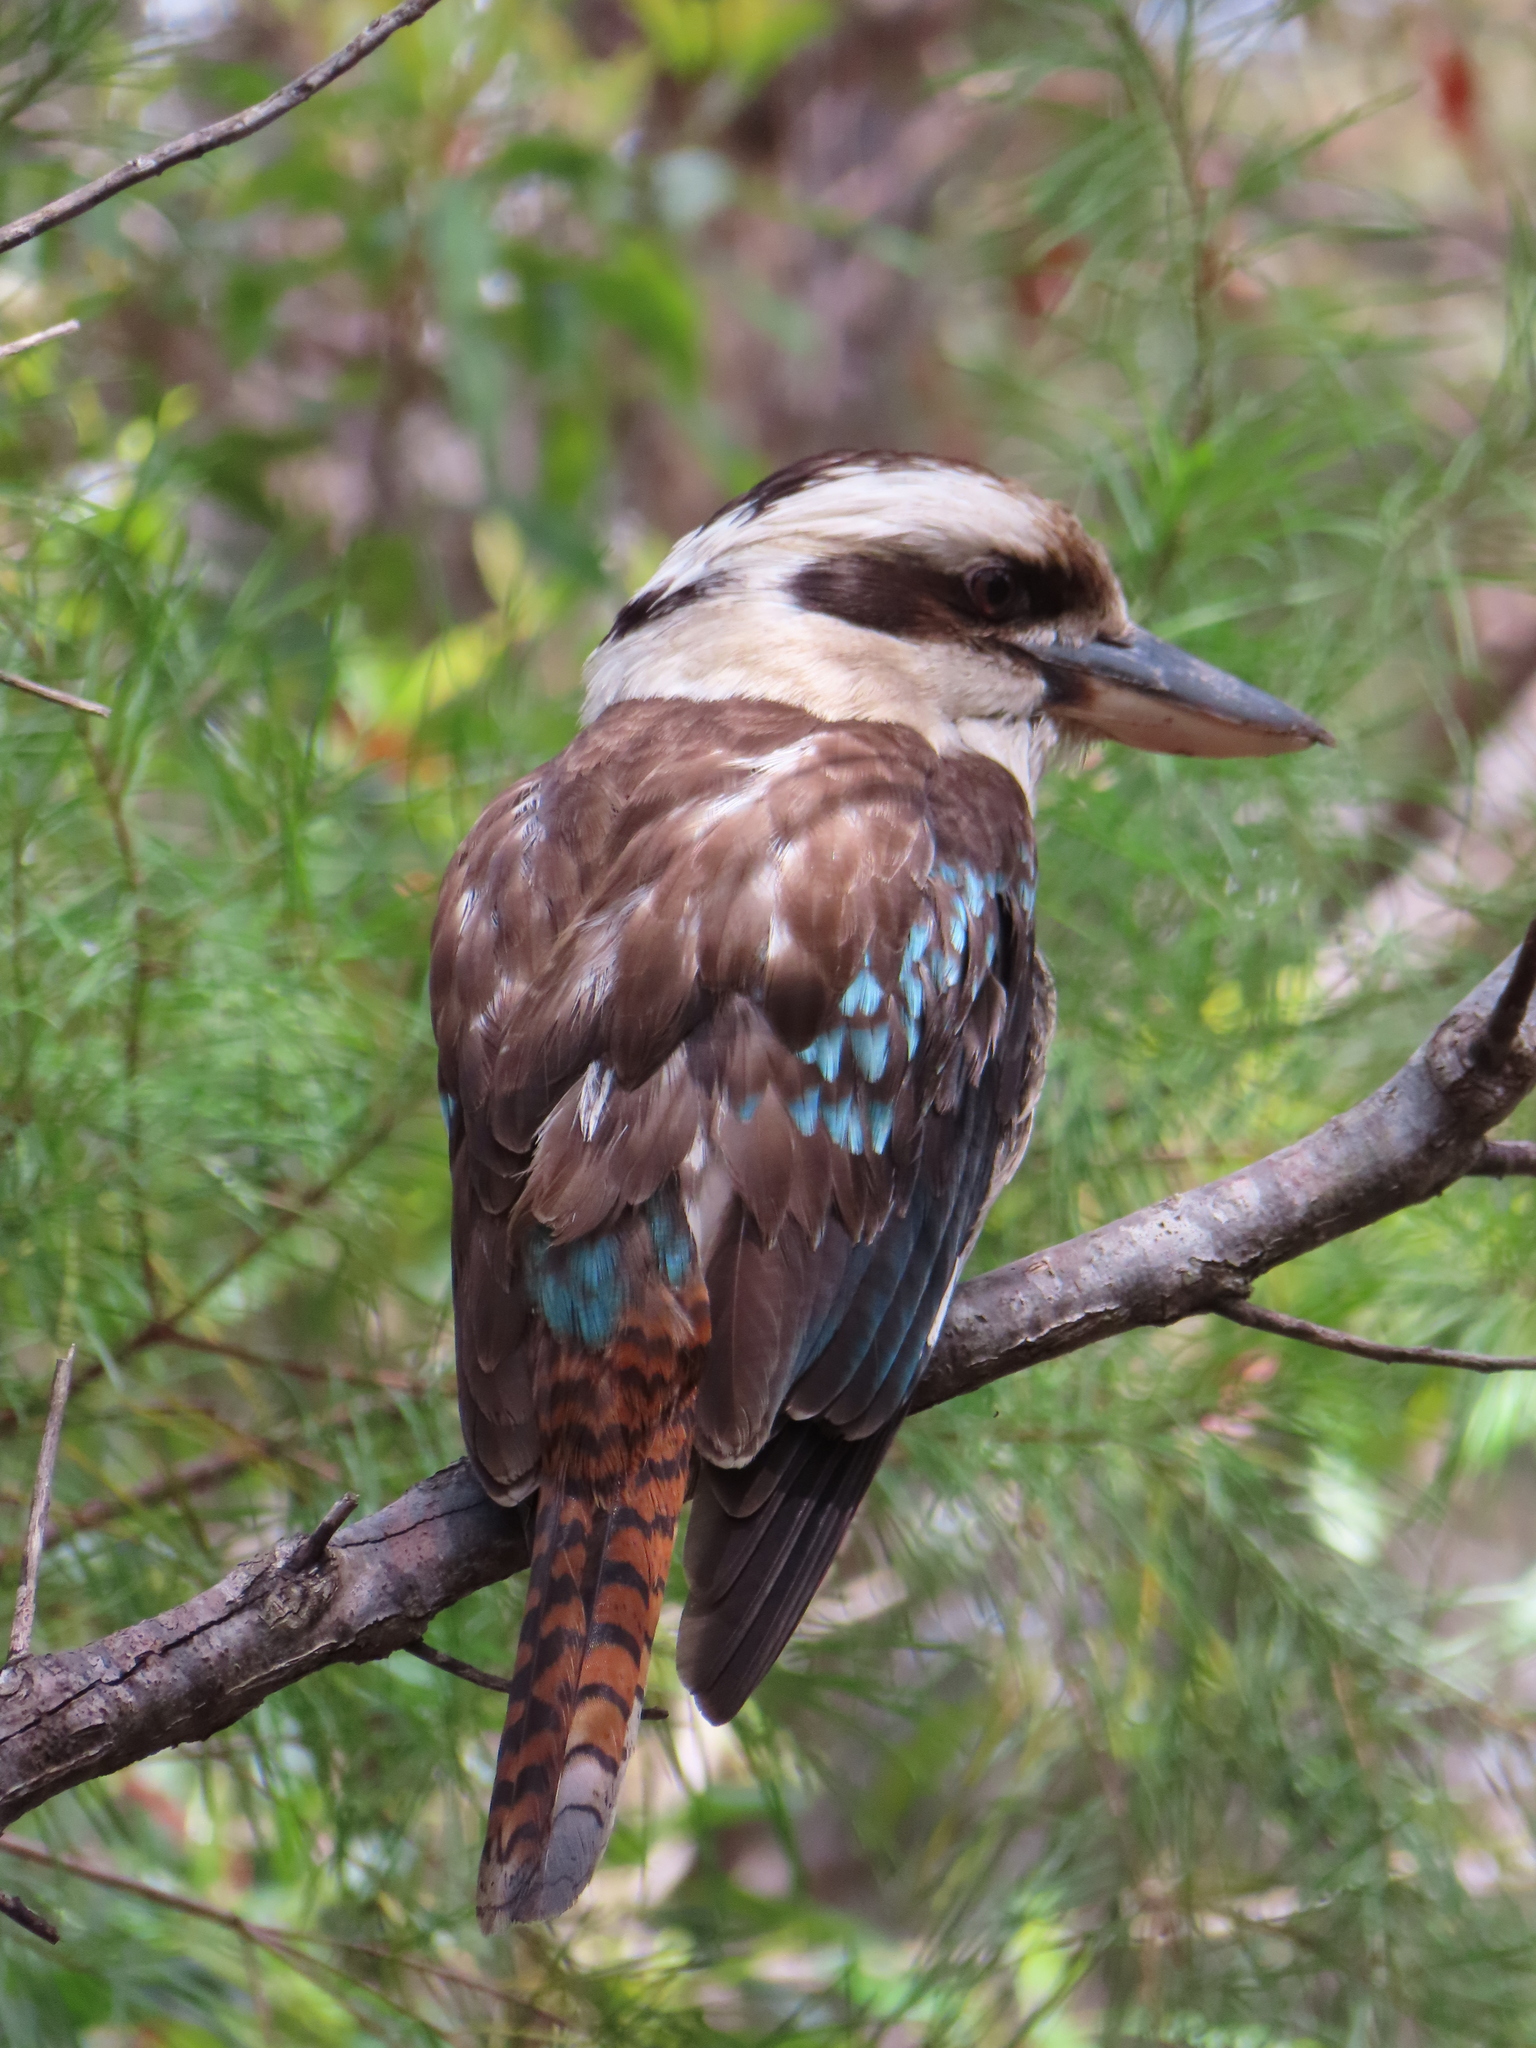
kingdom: Animalia
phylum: Chordata
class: Aves
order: Coraciiformes
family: Alcedinidae
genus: Dacelo
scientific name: Dacelo novaeguineae
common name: Laughing kookaburra
